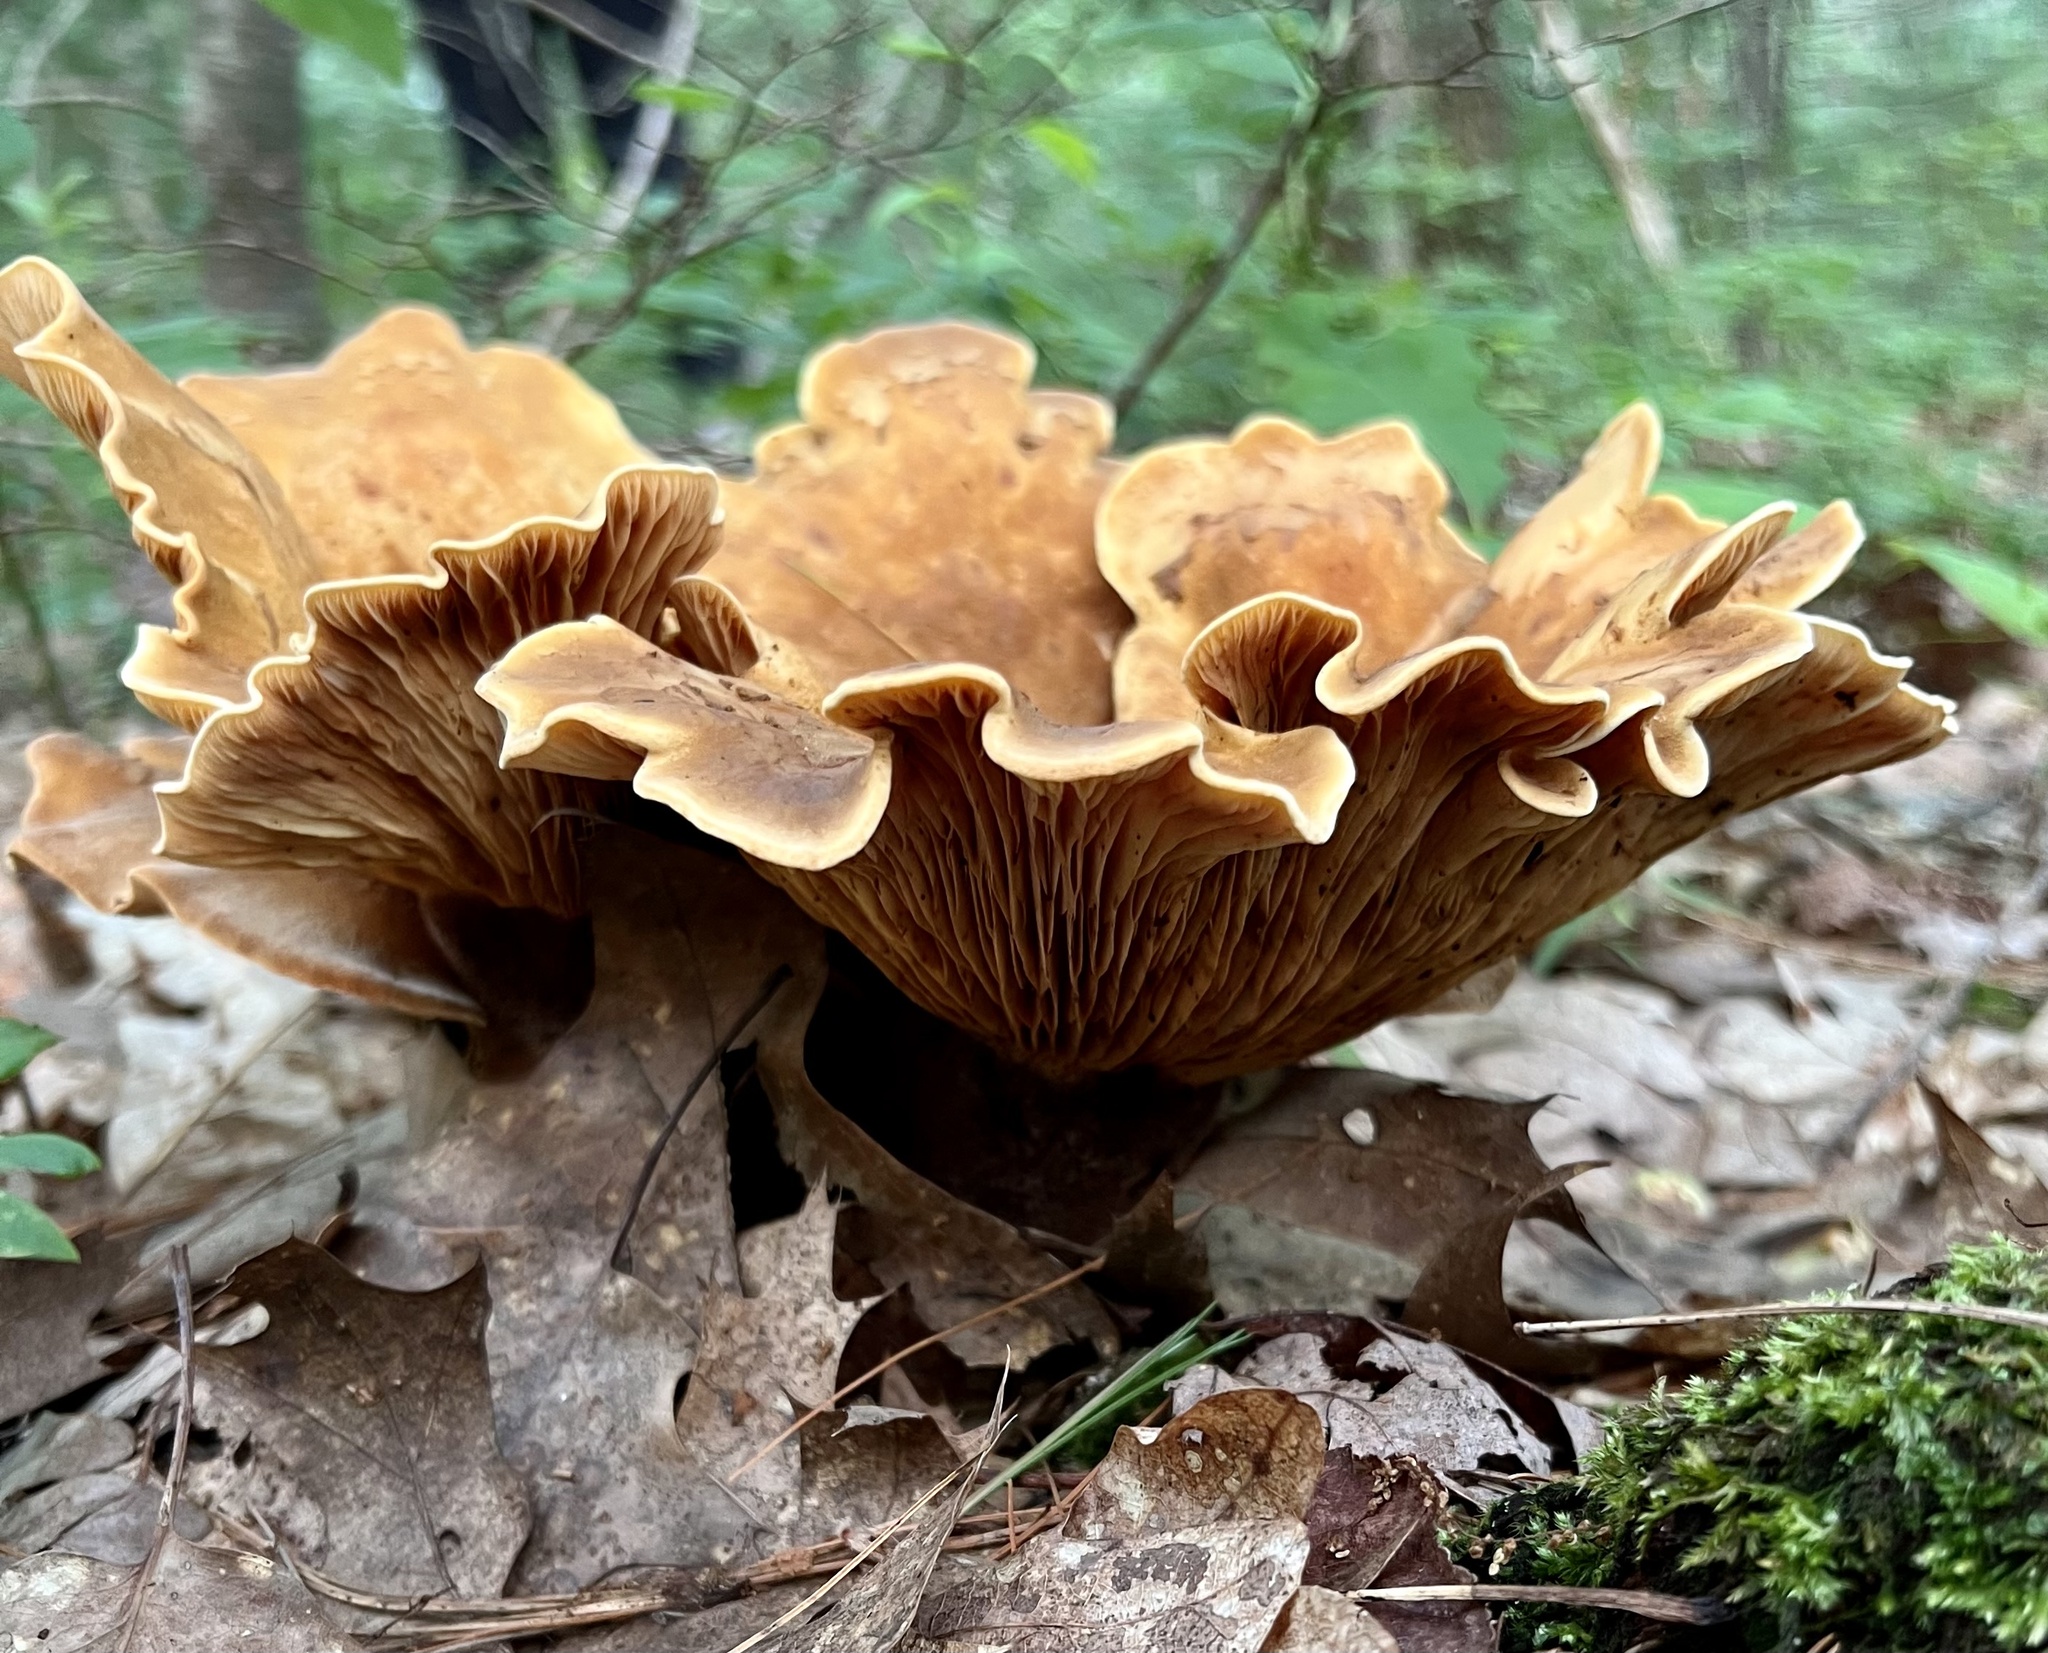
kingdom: Fungi
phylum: Basidiomycota
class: Agaricomycetes
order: Boletales
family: Tapinellaceae
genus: Tapinella
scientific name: Tapinella atrotomentosa
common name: Velvet rollrim
